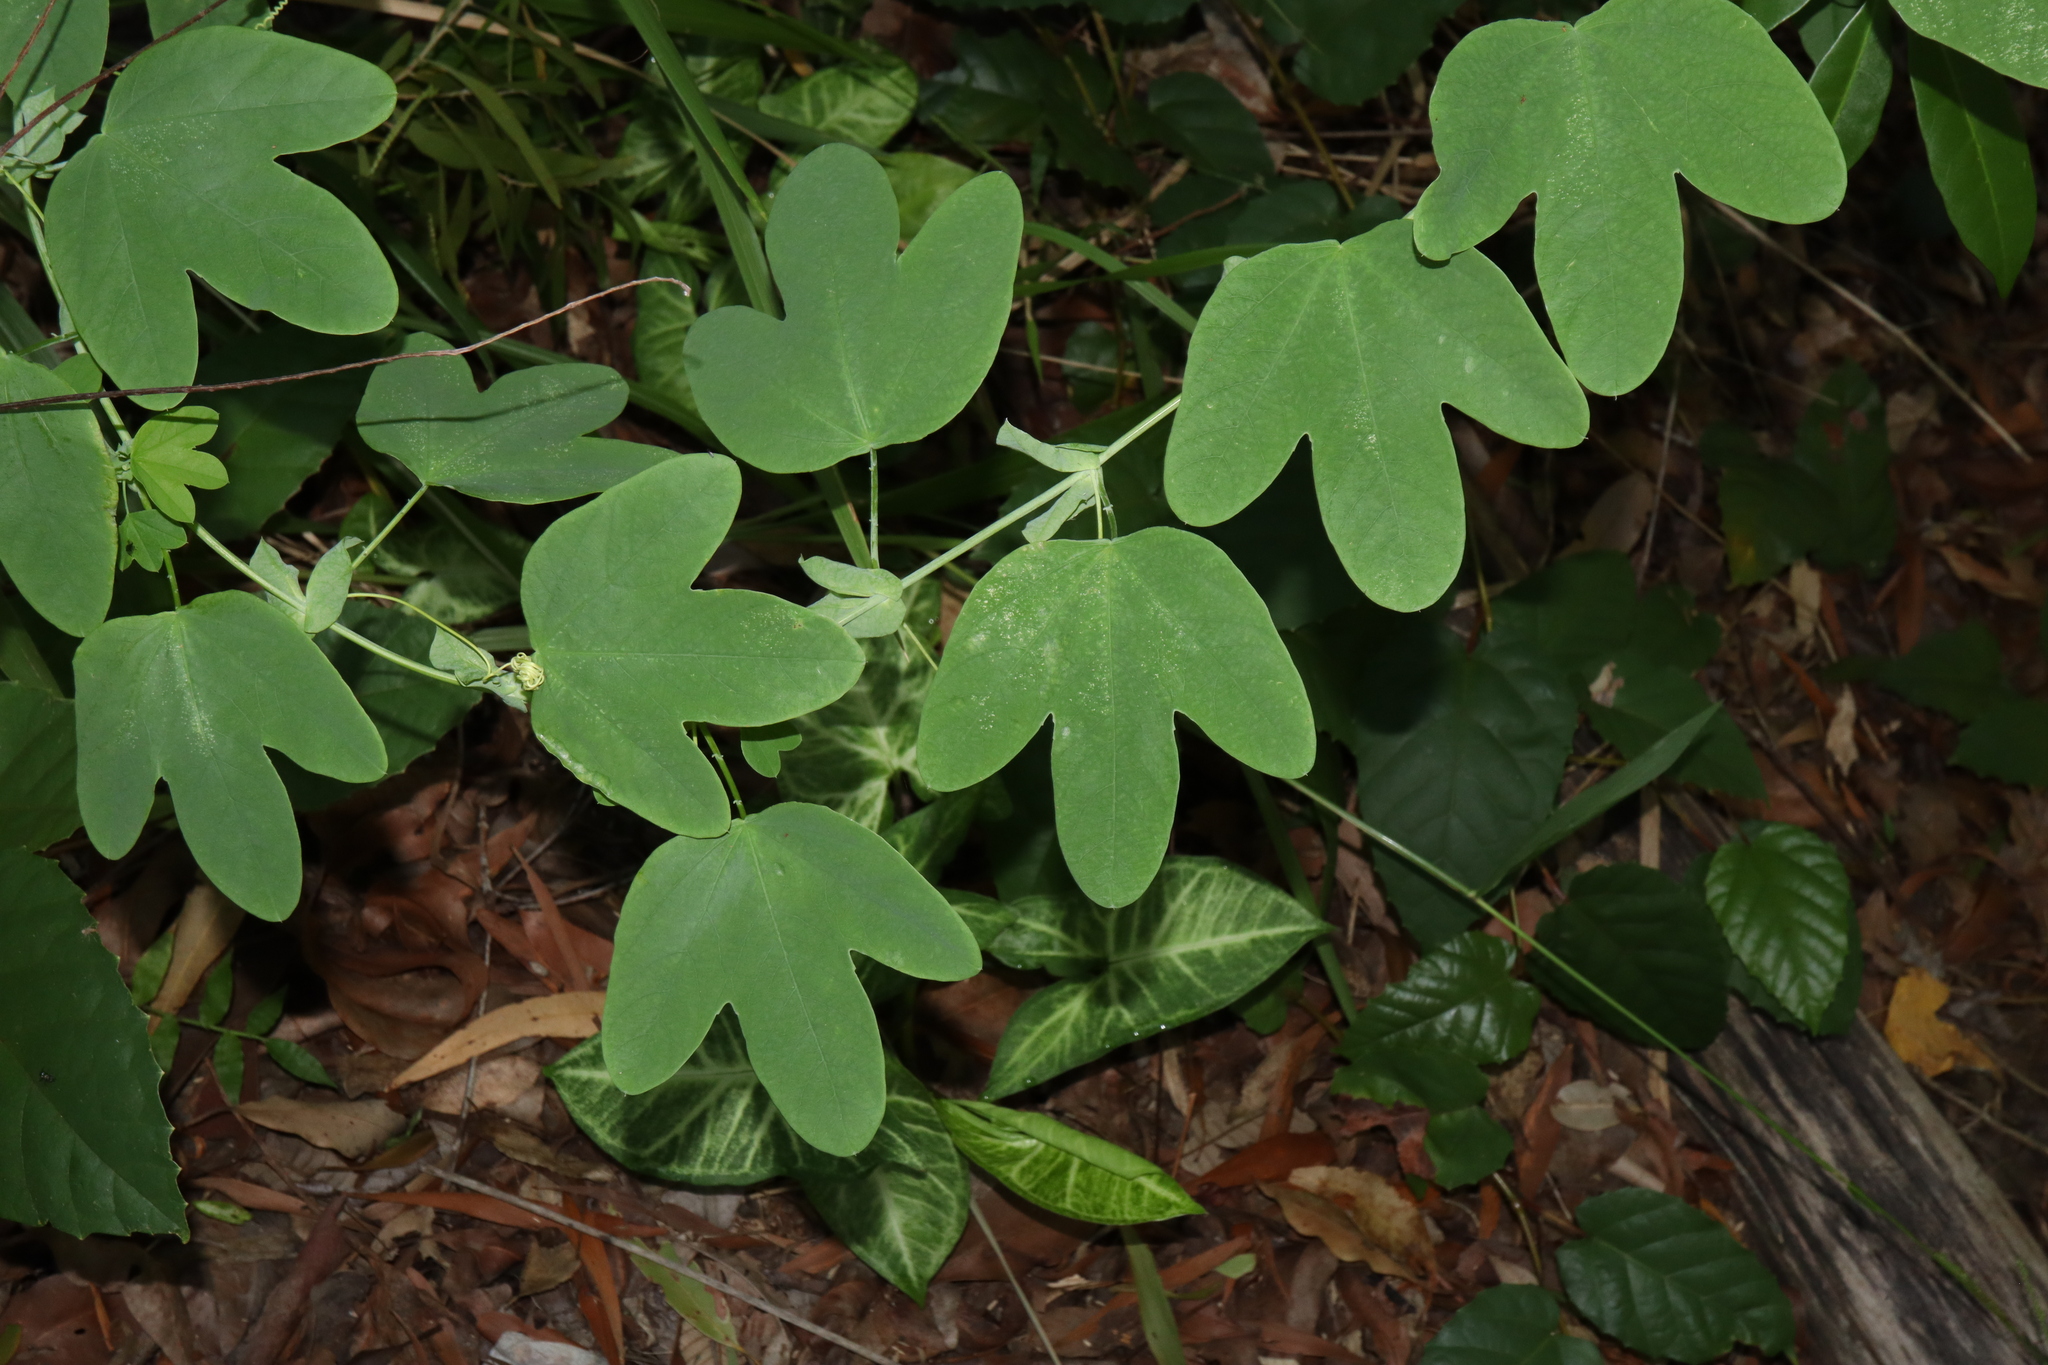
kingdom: Plantae
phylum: Tracheophyta
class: Magnoliopsida
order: Malpighiales
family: Passifloraceae
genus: Passiflora
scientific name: Passiflora subpeltata
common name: White passionflower
